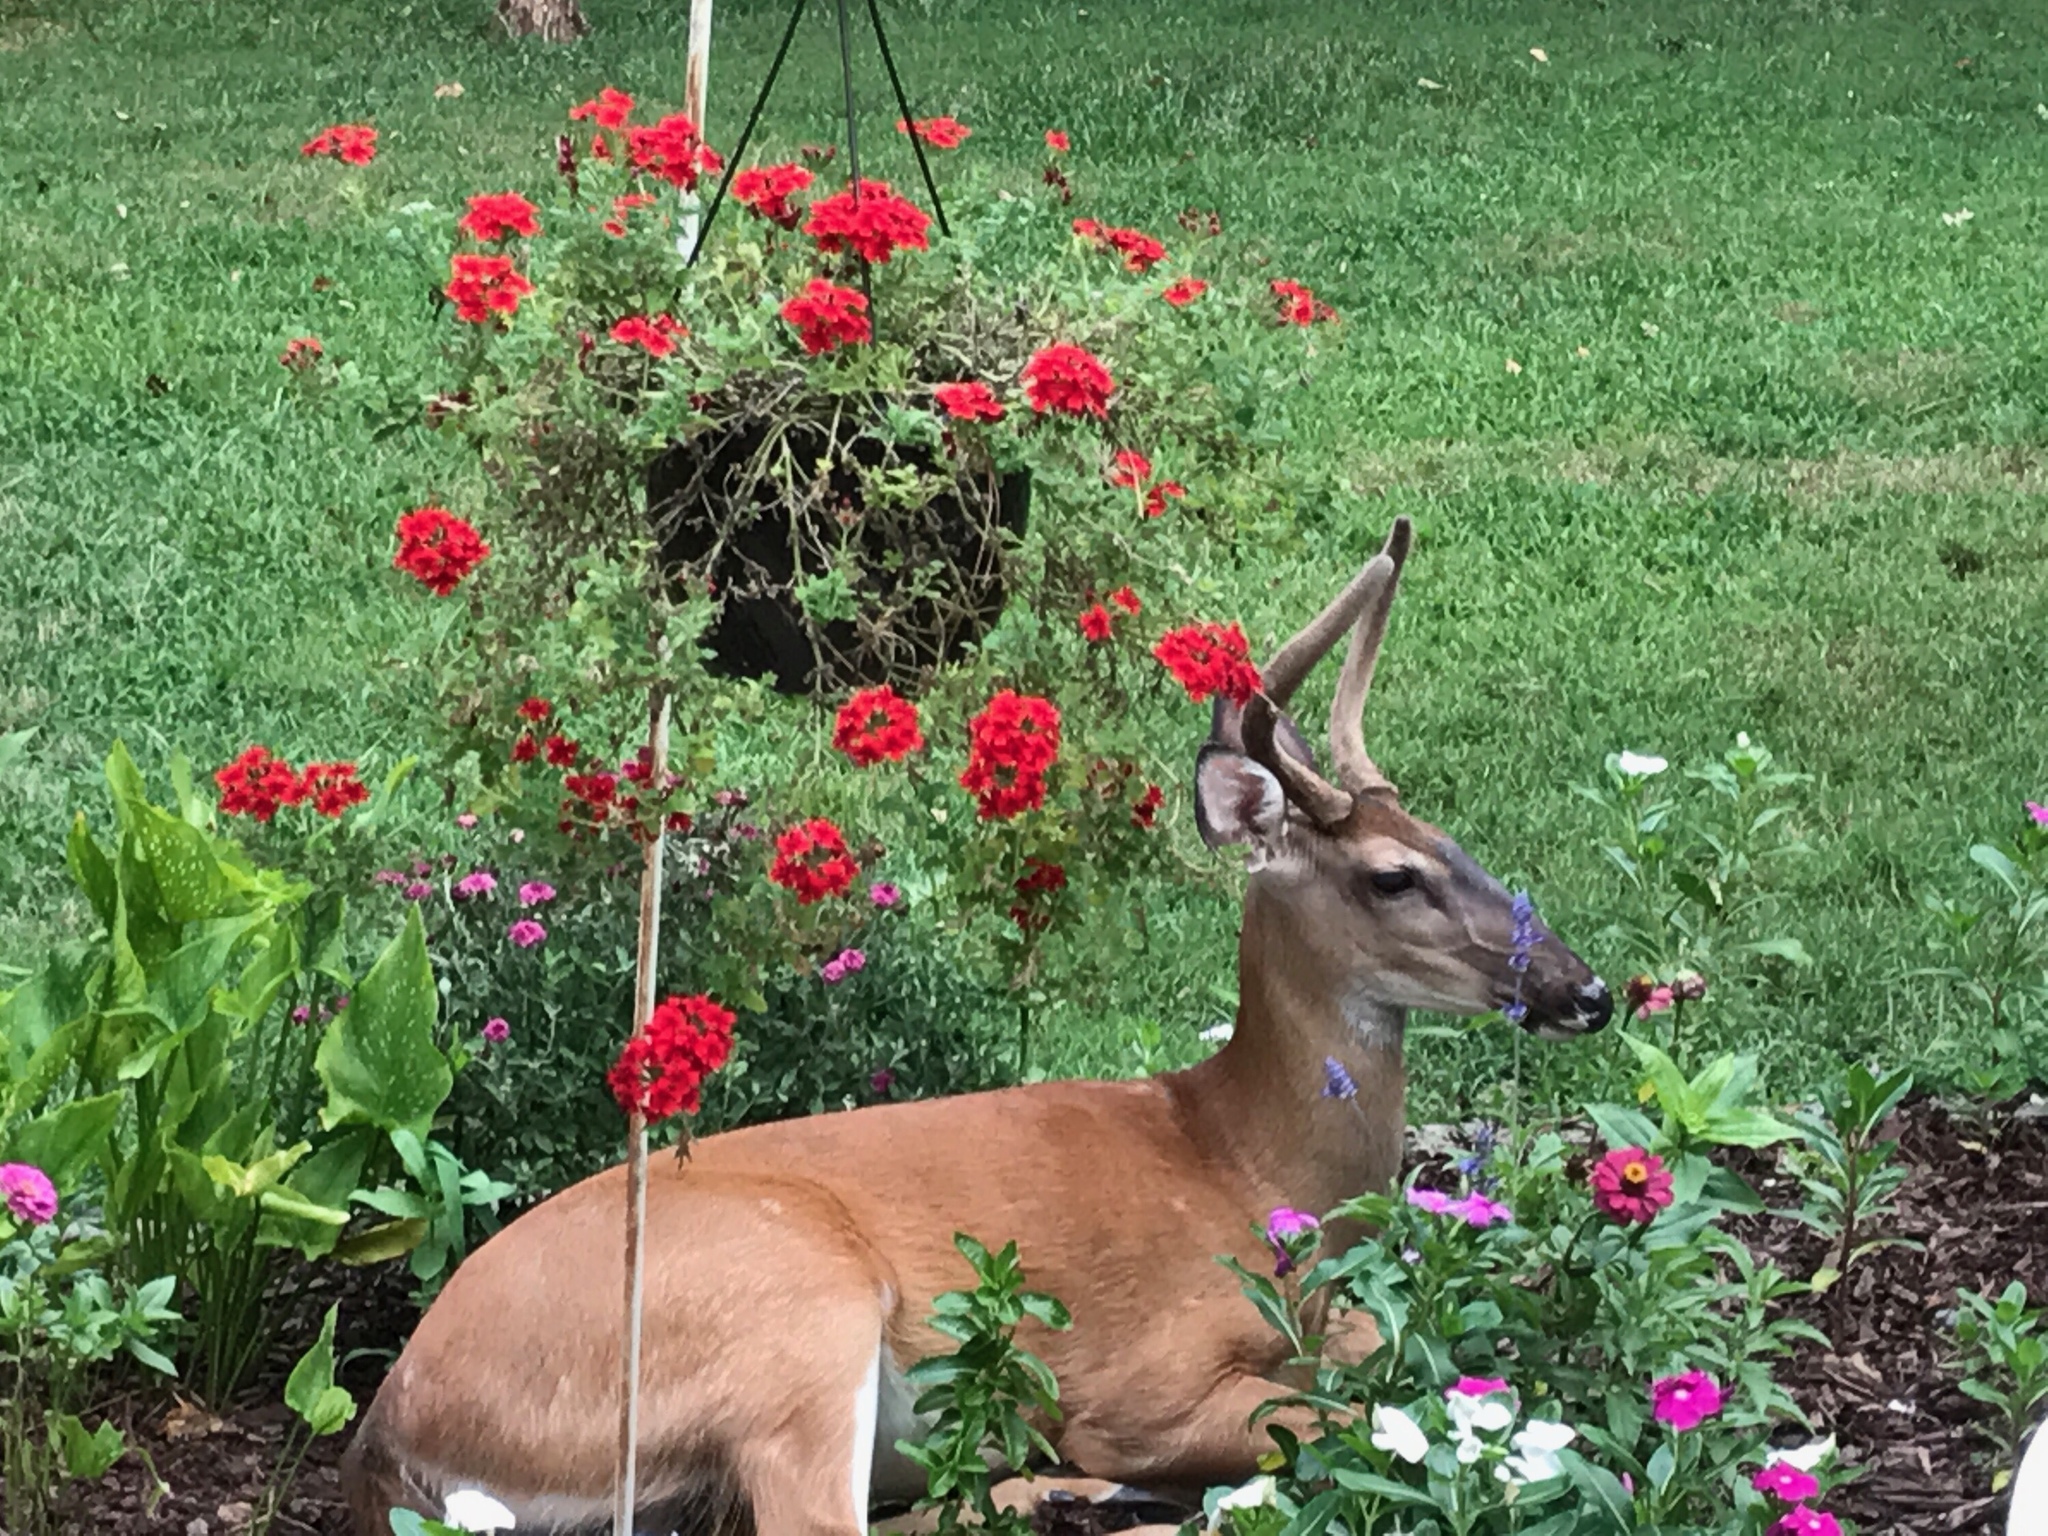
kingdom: Animalia
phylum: Chordata
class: Mammalia
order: Artiodactyla
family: Cervidae
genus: Odocoileus
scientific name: Odocoileus virginianus
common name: White-tailed deer
